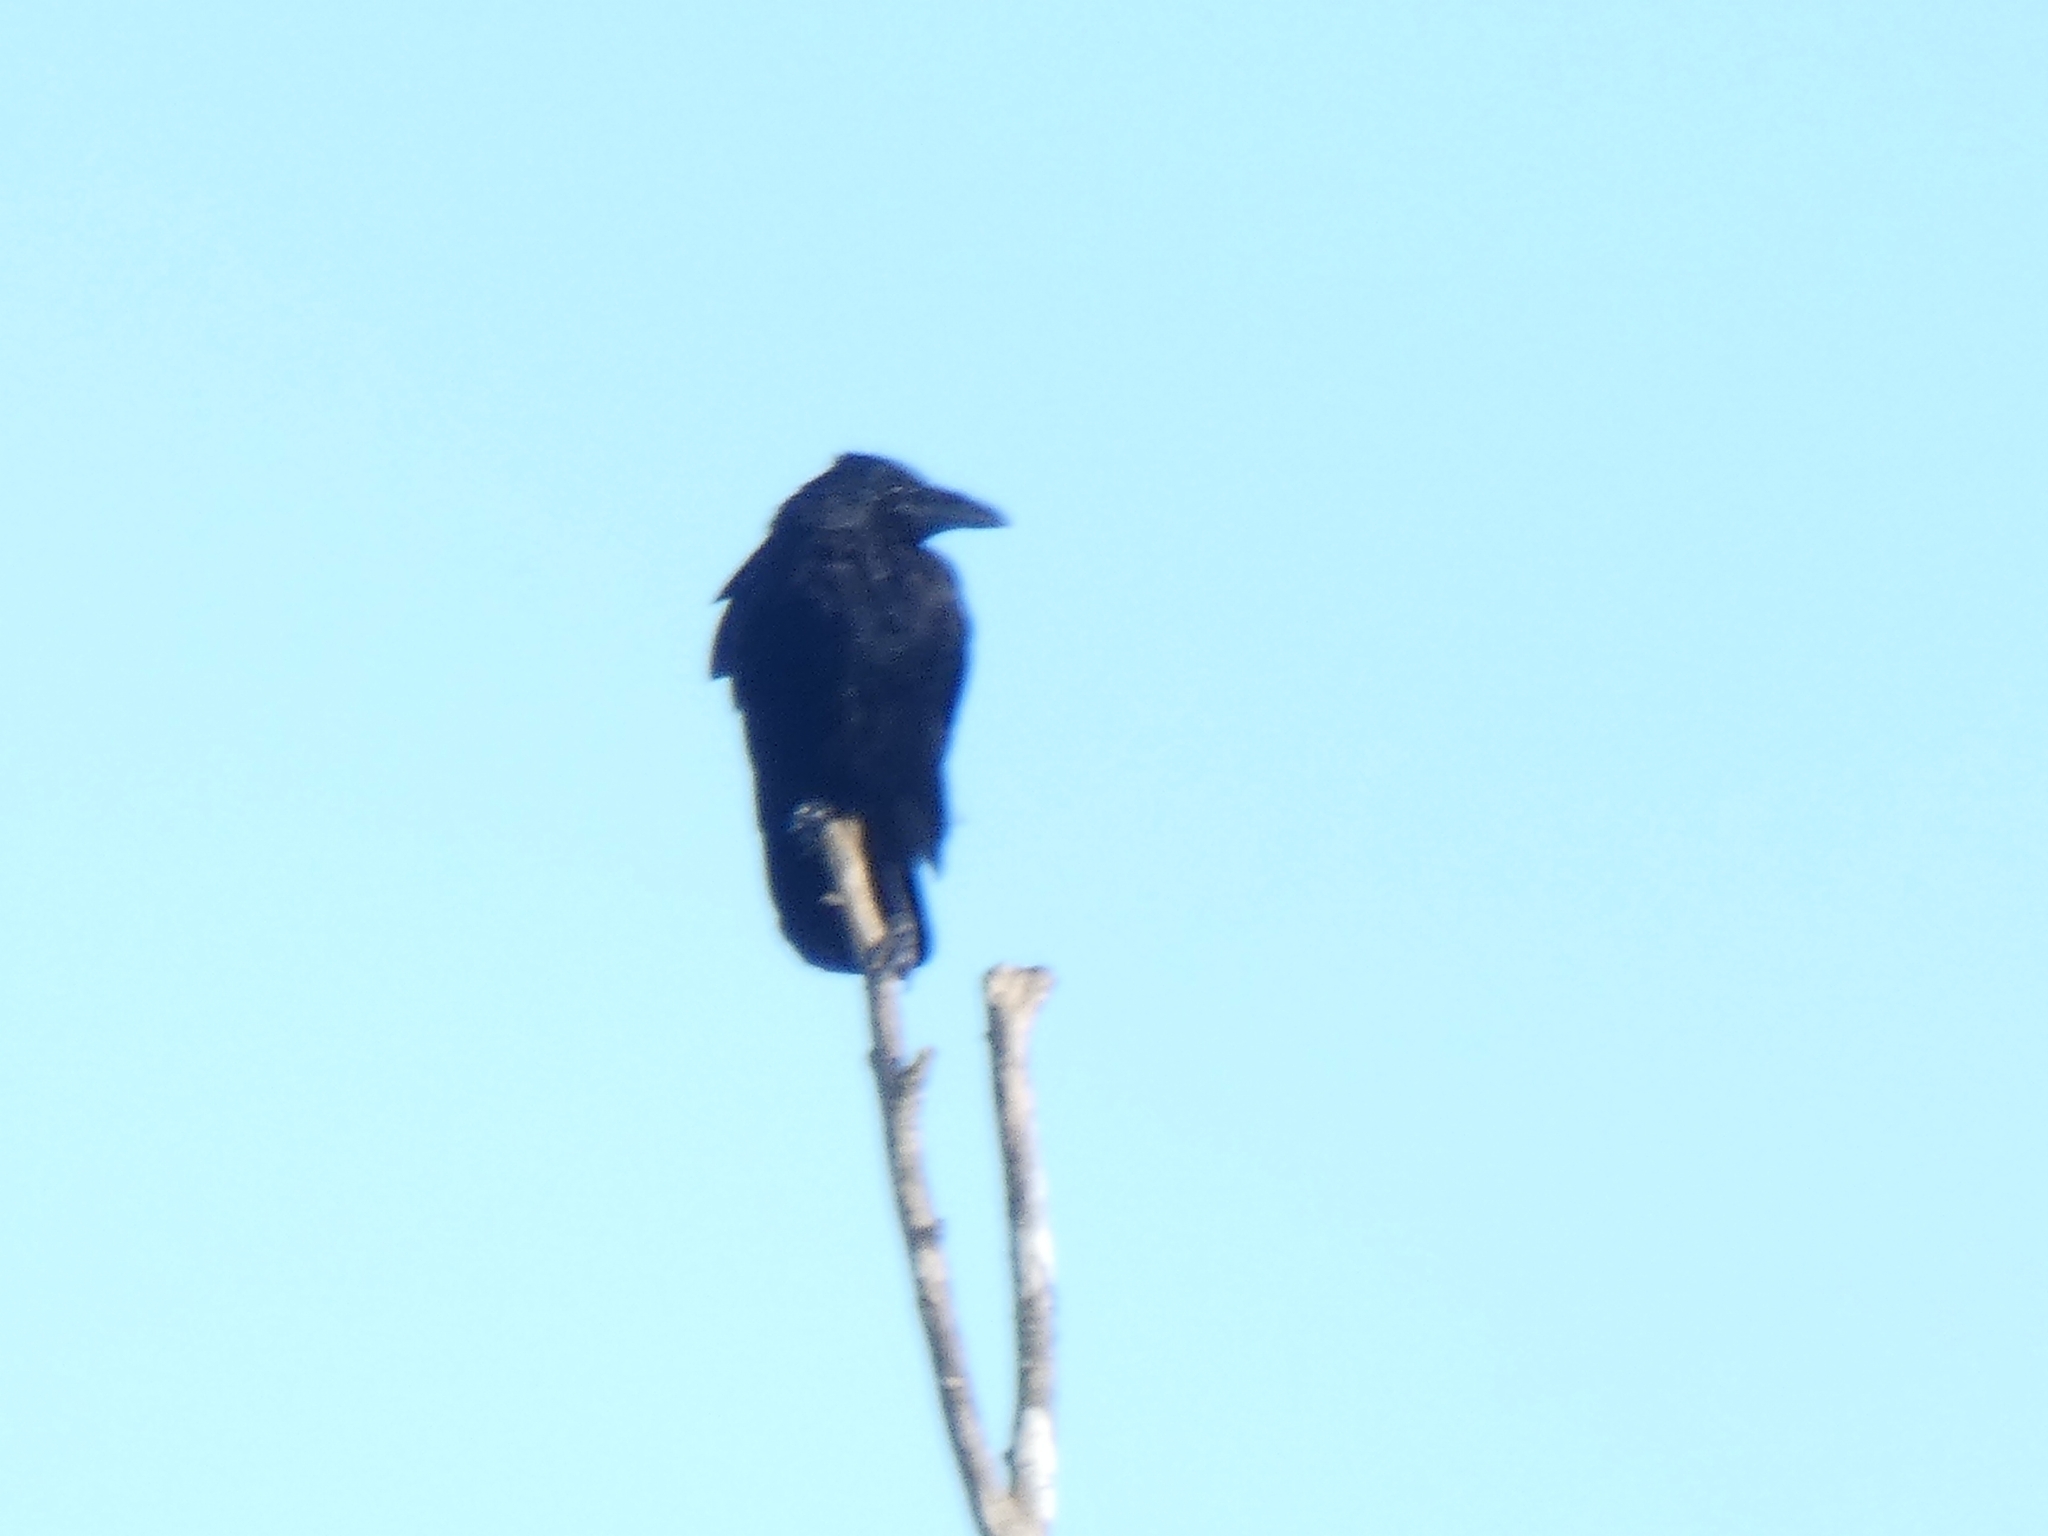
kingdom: Animalia
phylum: Chordata
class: Aves
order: Passeriformes
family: Corvidae
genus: Corvus
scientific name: Corvus corone
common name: Carrion crow
